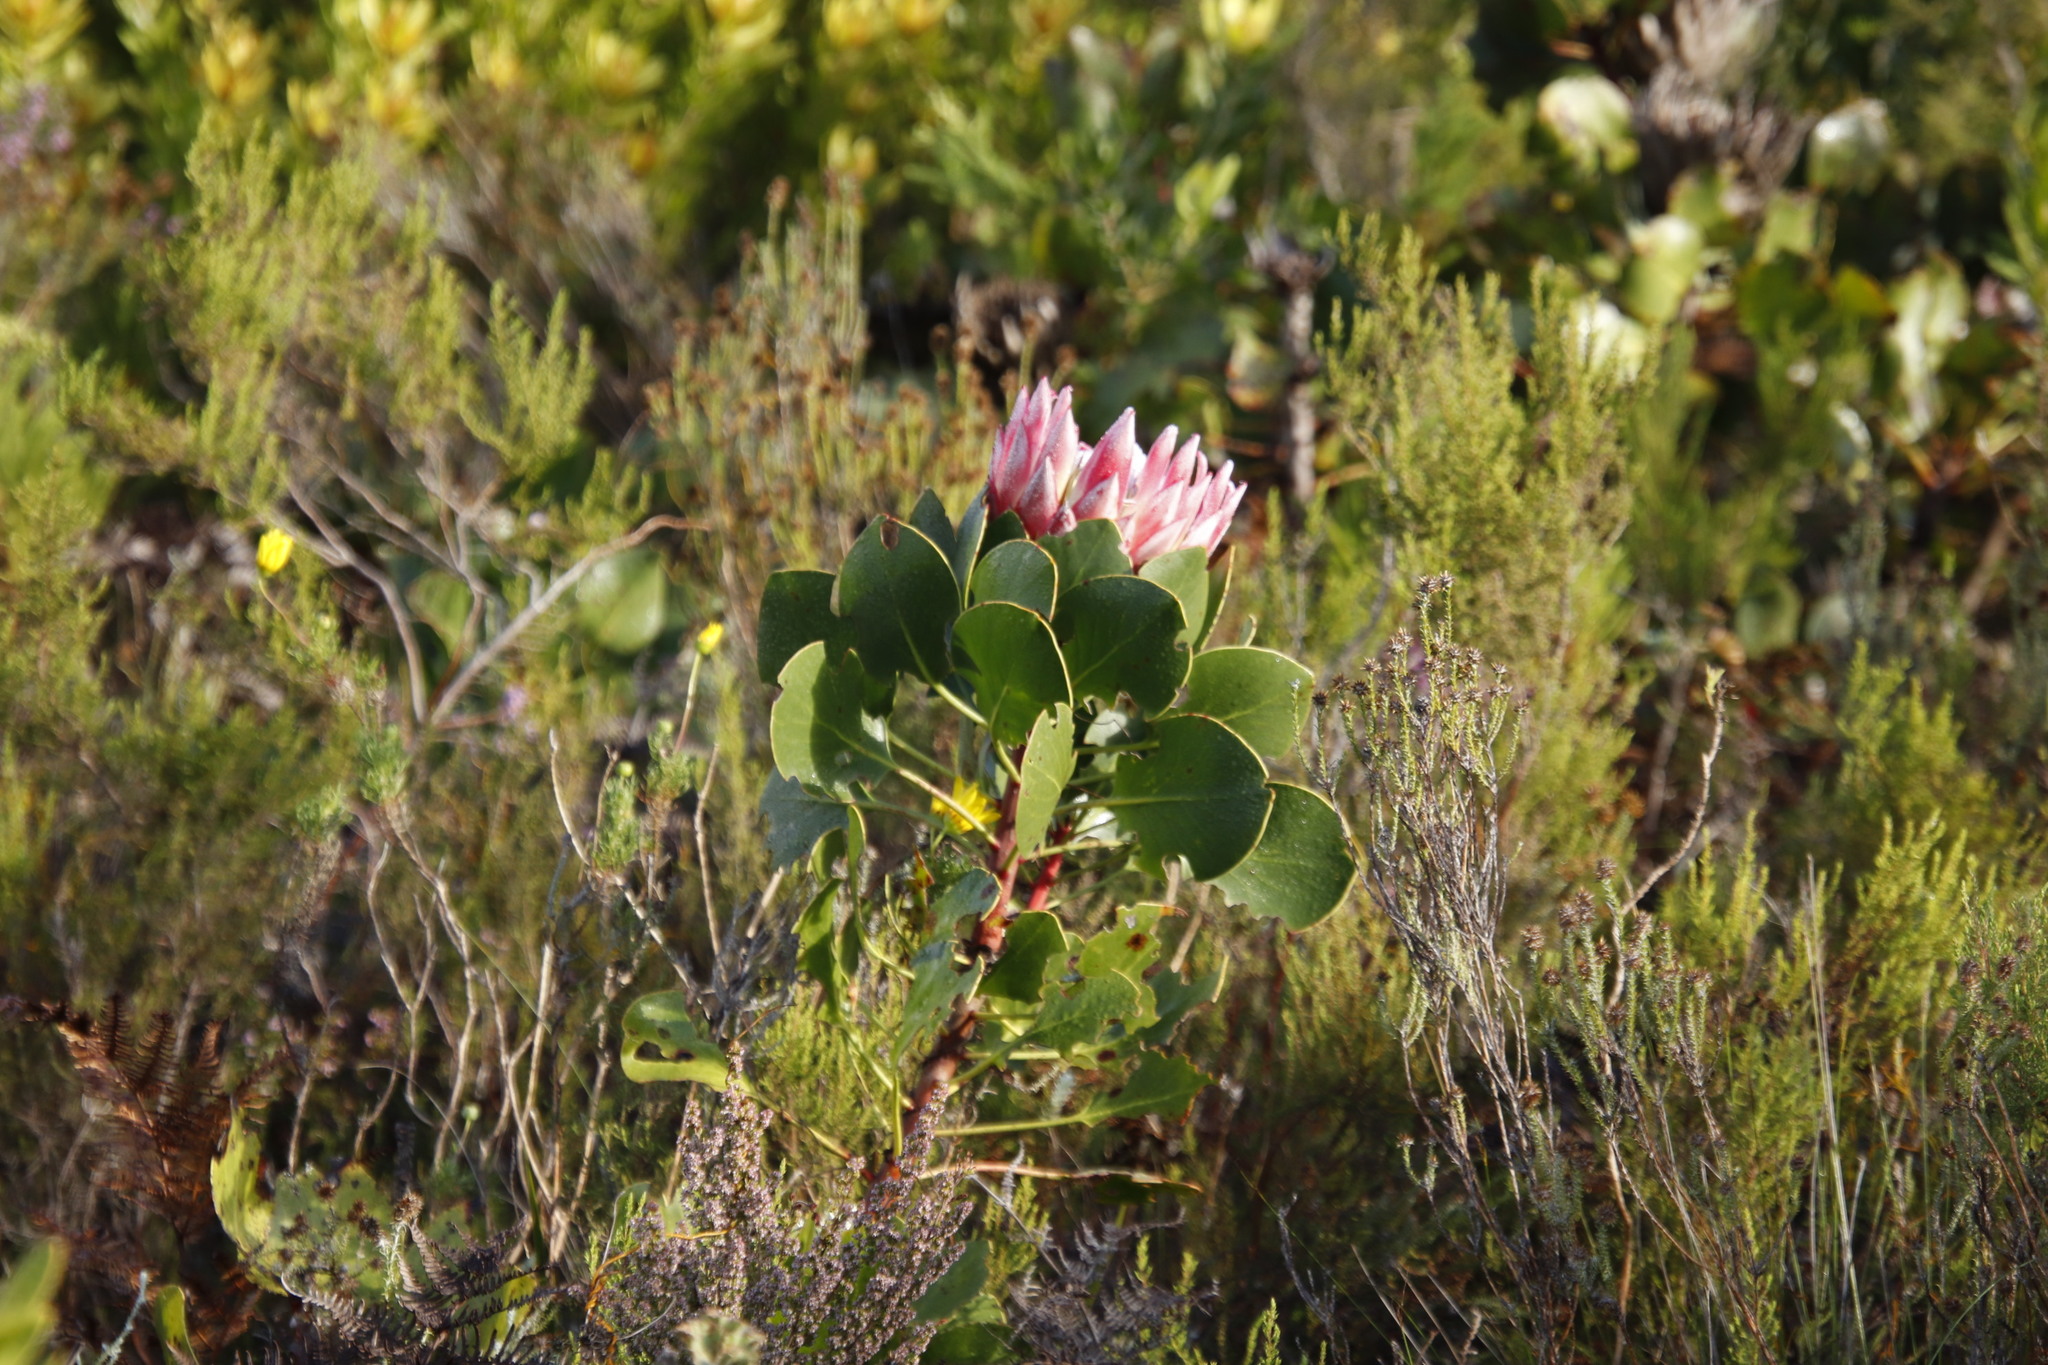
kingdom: Plantae
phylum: Tracheophyta
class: Magnoliopsida
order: Proteales
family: Proteaceae
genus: Protea
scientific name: Protea cynaroides
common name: King protea
